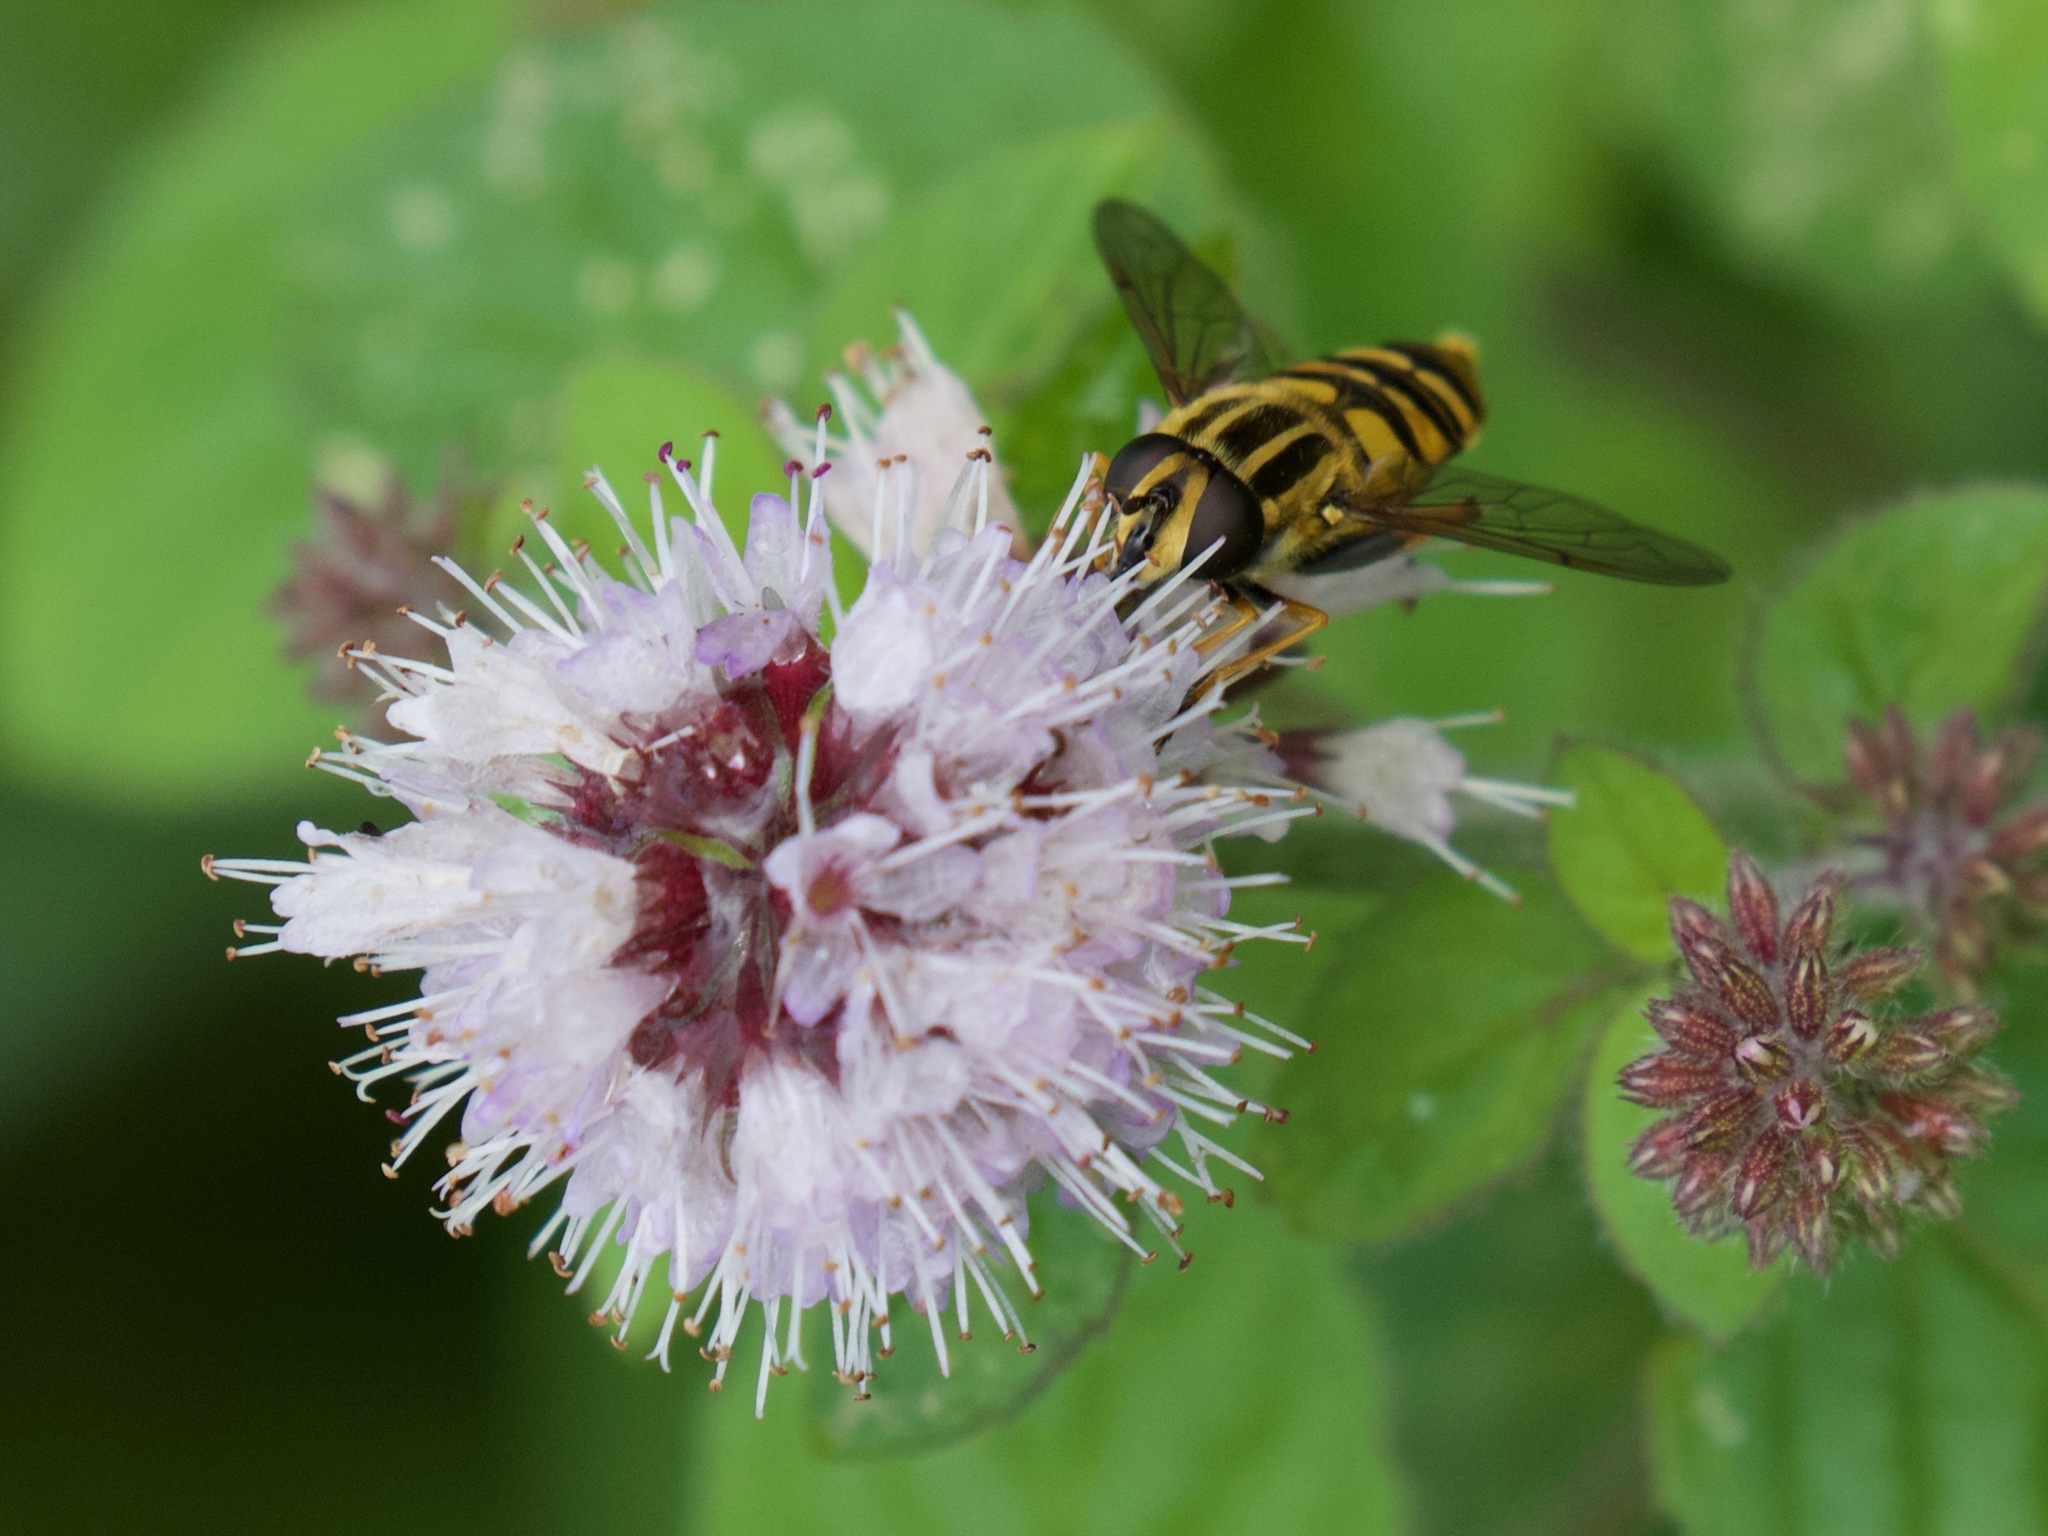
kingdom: Animalia
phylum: Arthropoda
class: Insecta
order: Diptera
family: Syrphidae
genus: Helophilus
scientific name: Helophilus pendulus
